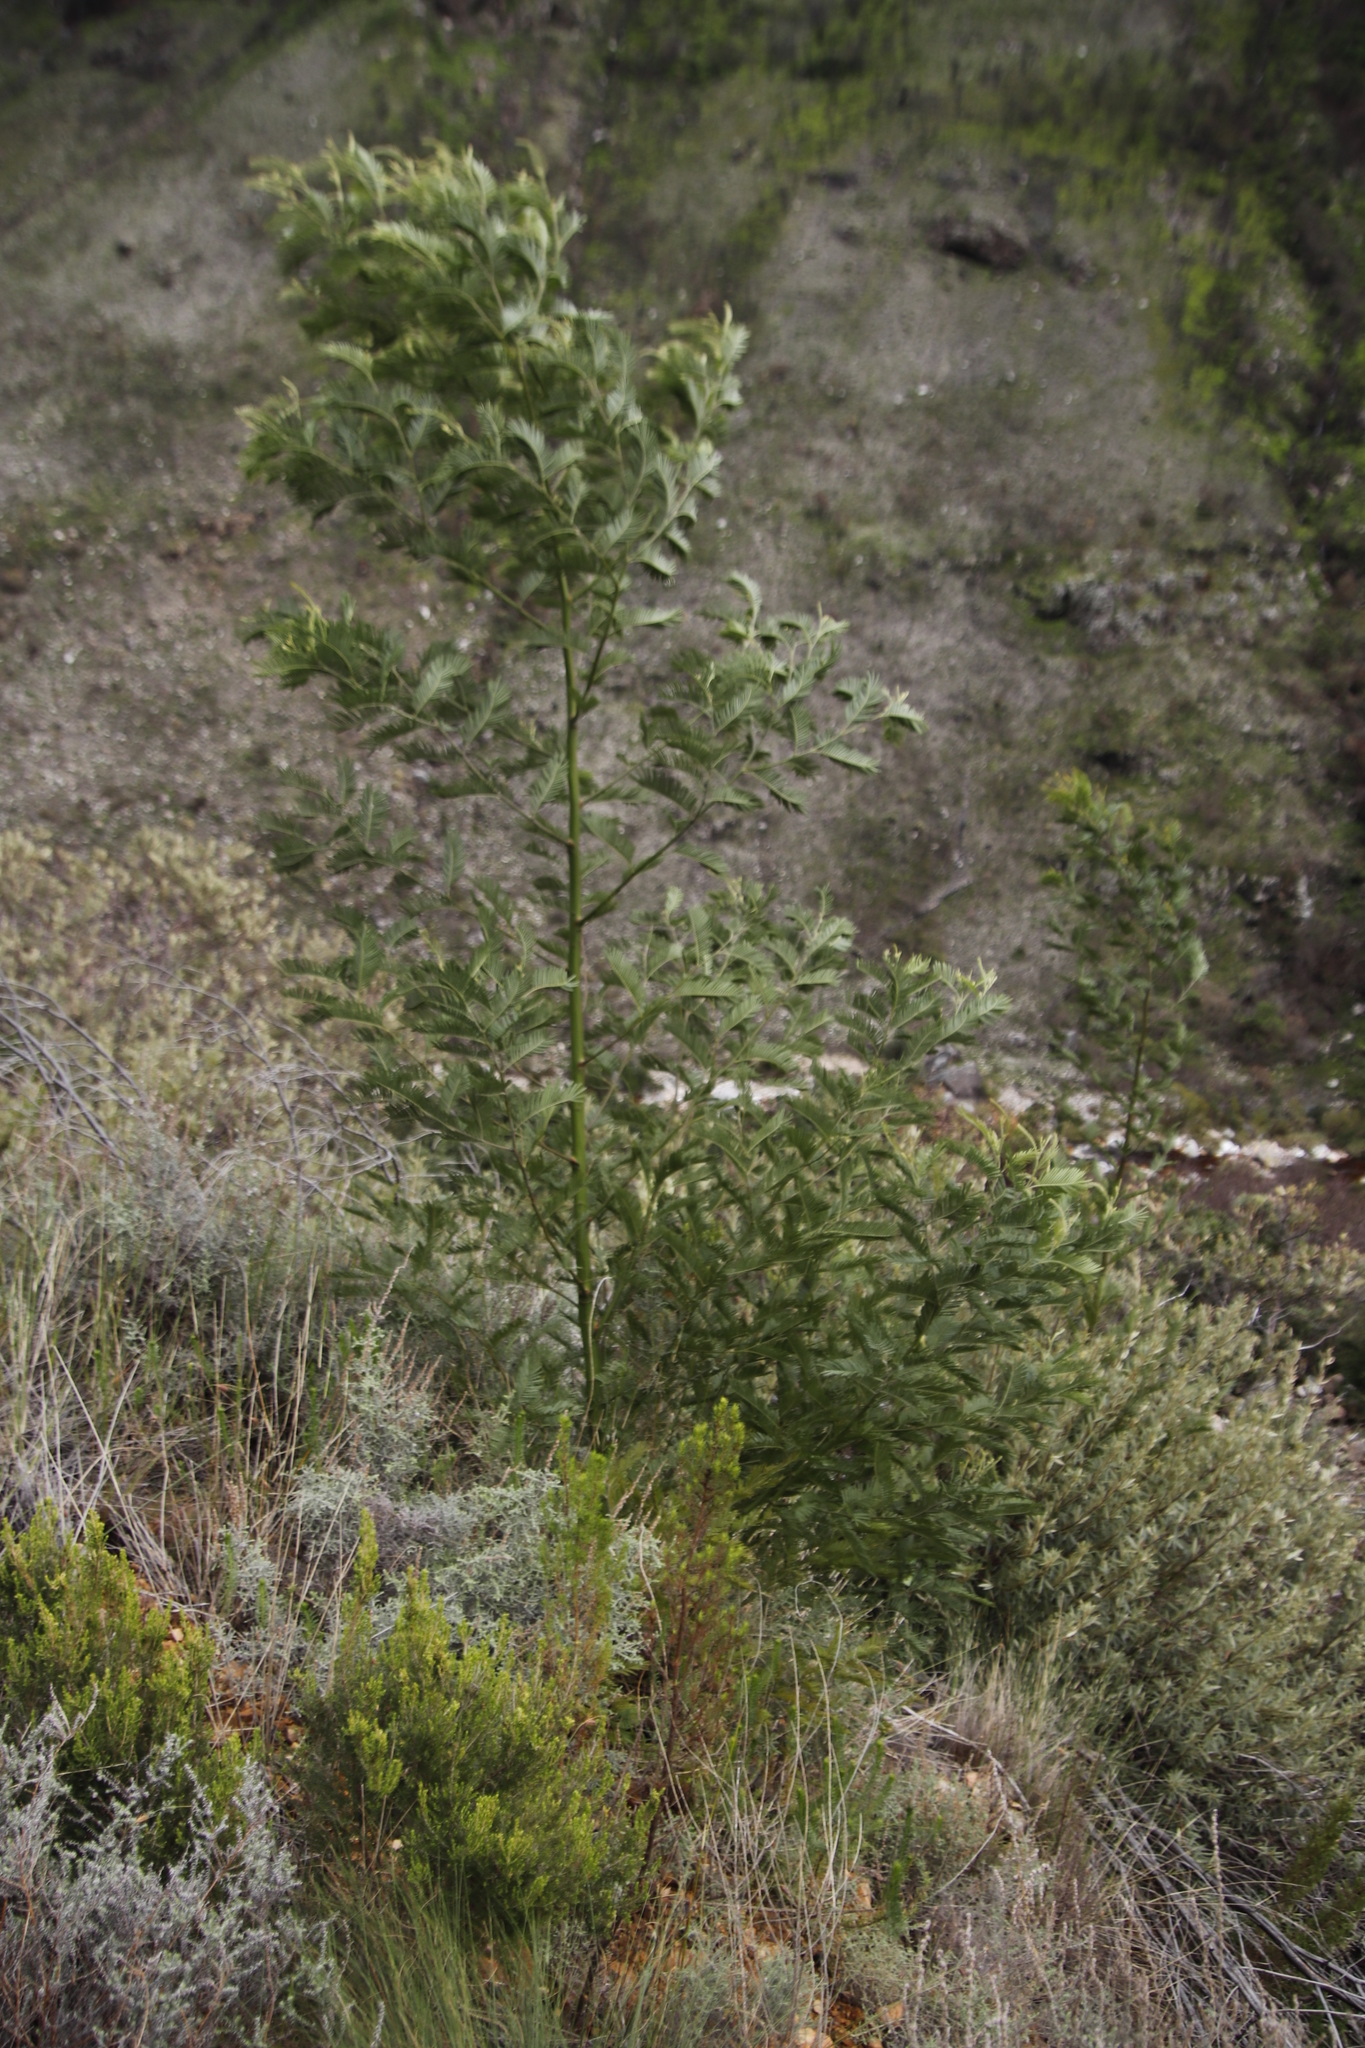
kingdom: Plantae
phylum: Tracheophyta
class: Magnoliopsida
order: Fabales
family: Fabaceae
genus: Acacia
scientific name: Acacia mearnsii
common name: Black wattle
